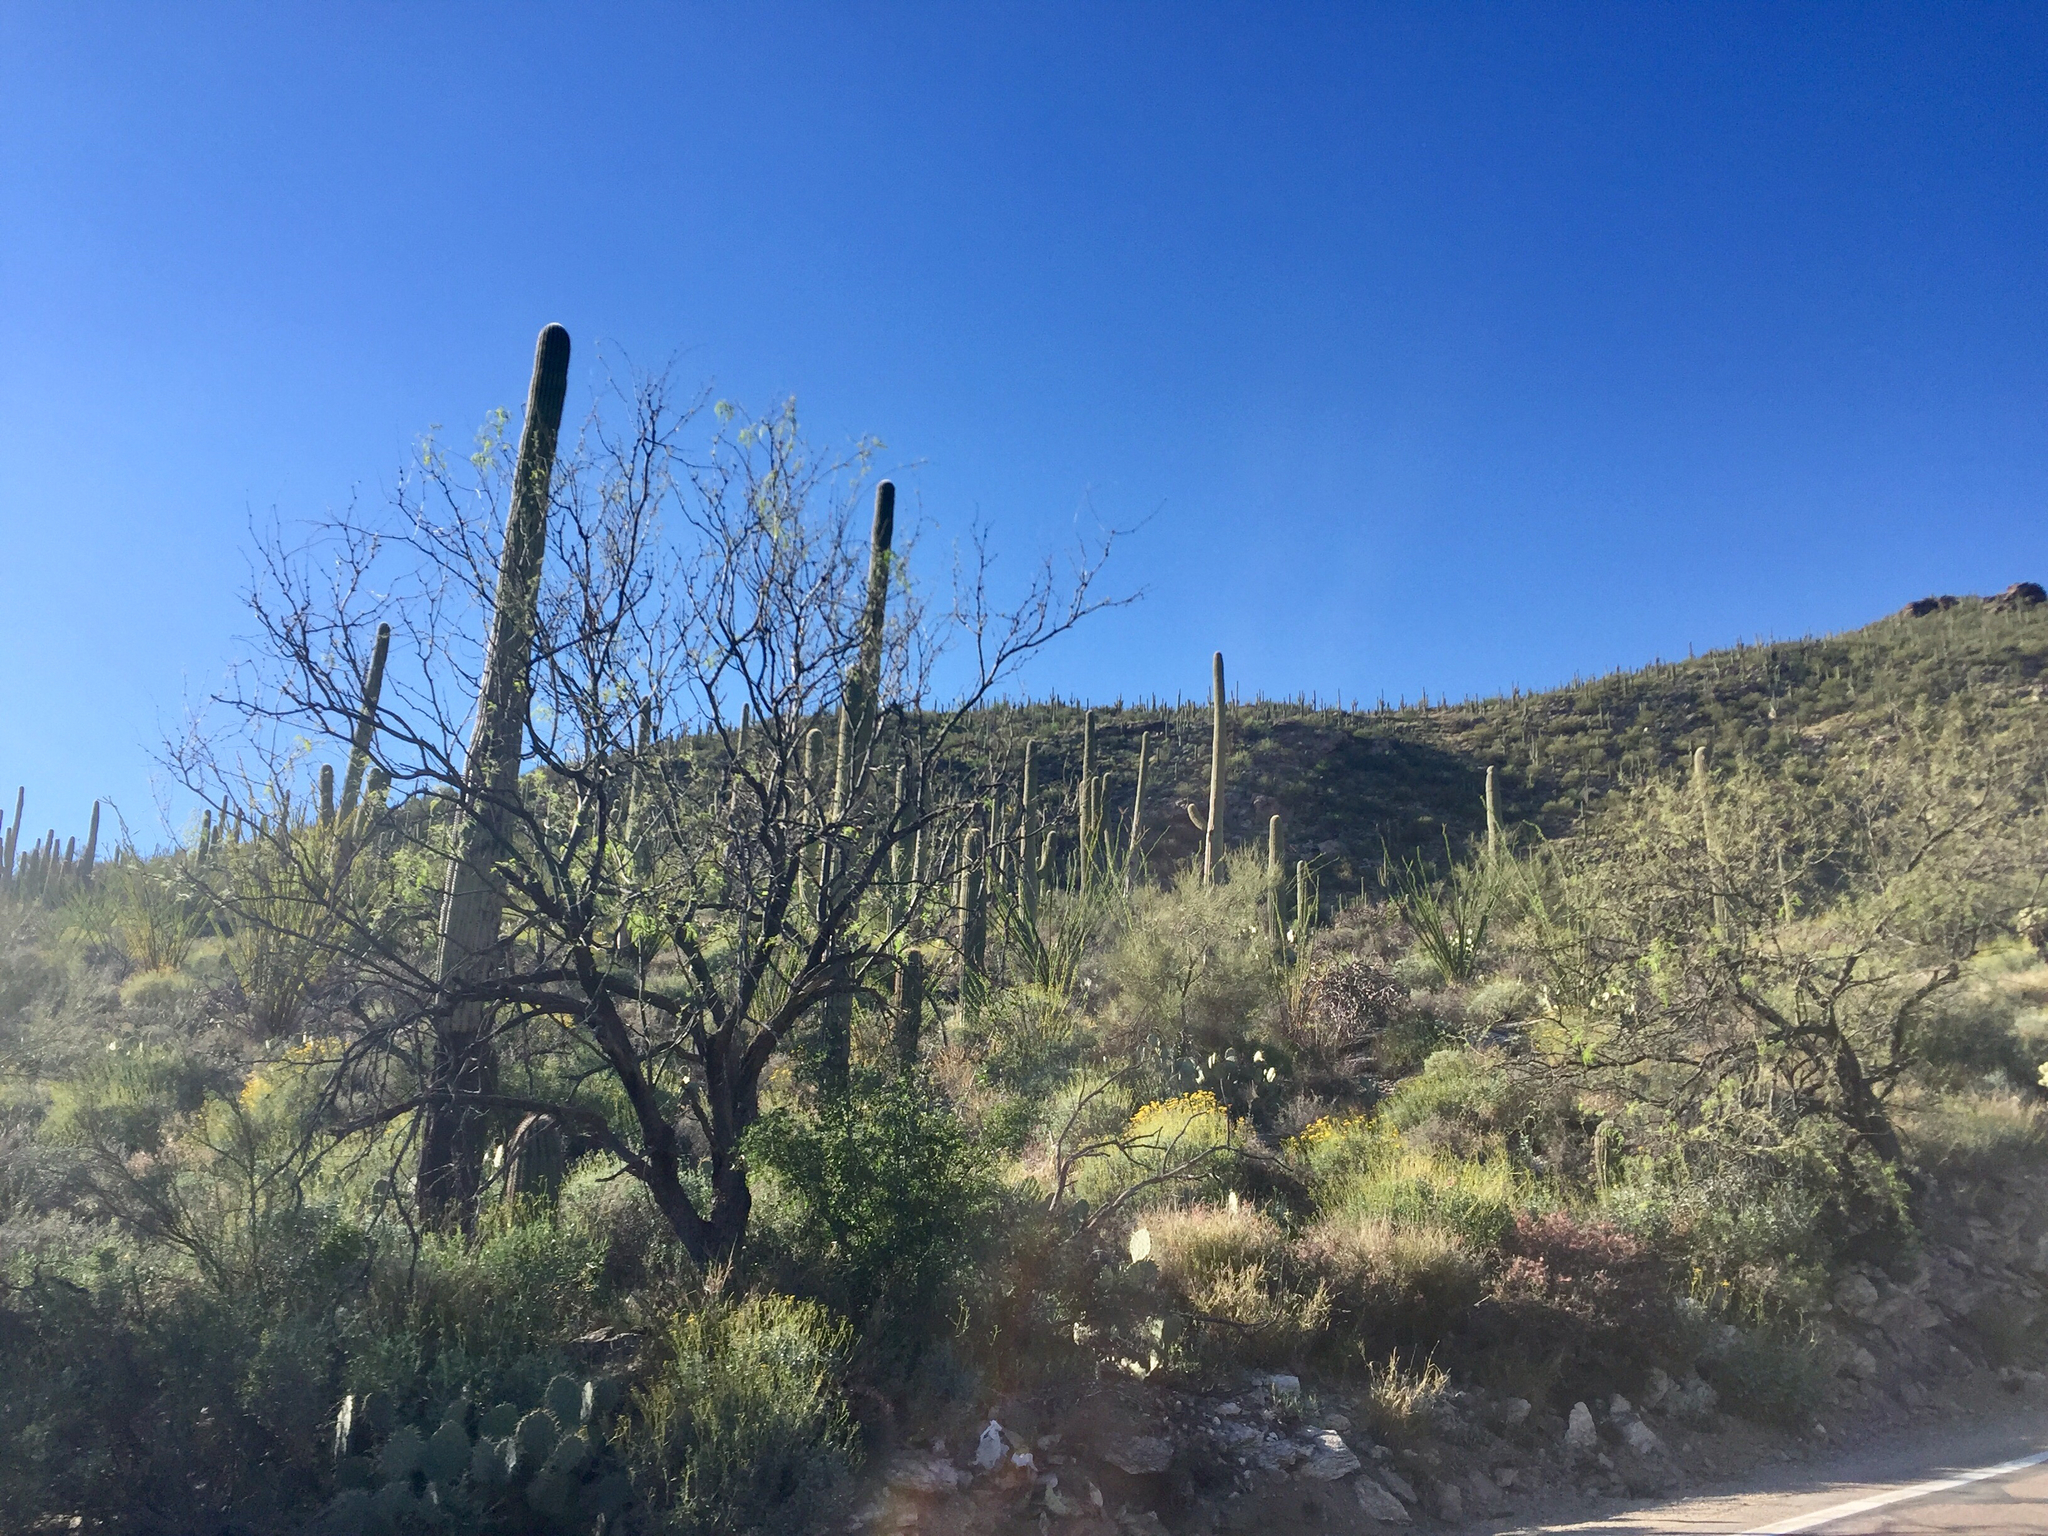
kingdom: Plantae
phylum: Tracheophyta
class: Magnoliopsida
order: Caryophyllales
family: Cactaceae
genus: Carnegiea
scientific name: Carnegiea gigantea
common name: Saguaro
